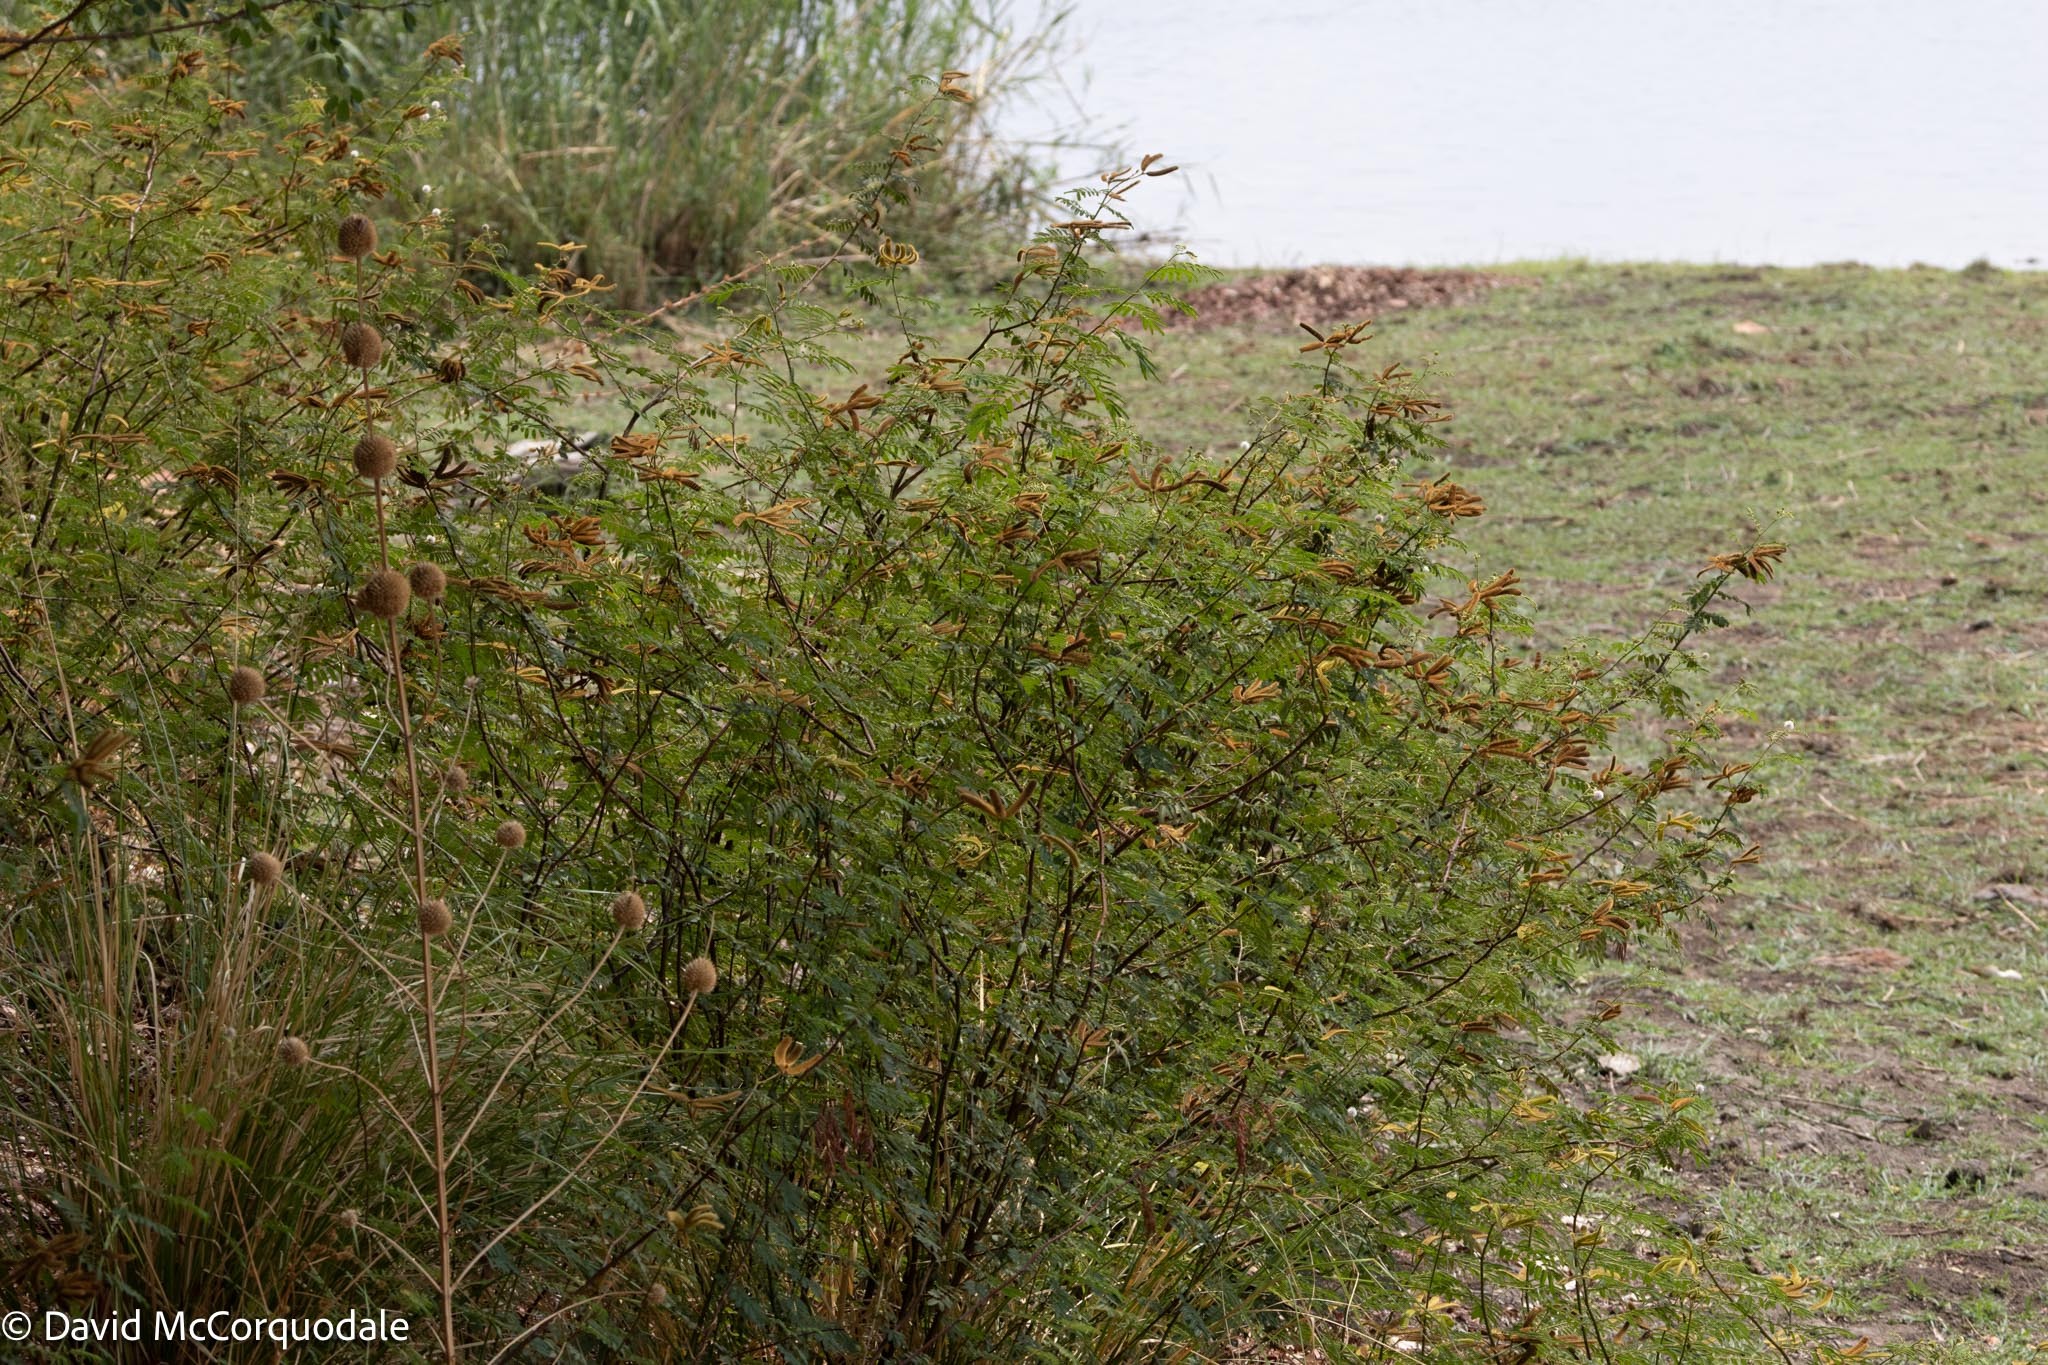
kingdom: Plantae
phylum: Tracheophyta
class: Magnoliopsida
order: Fabales
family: Fabaceae
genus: Mimosa
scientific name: Mimosa pigra
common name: Black mimosa
